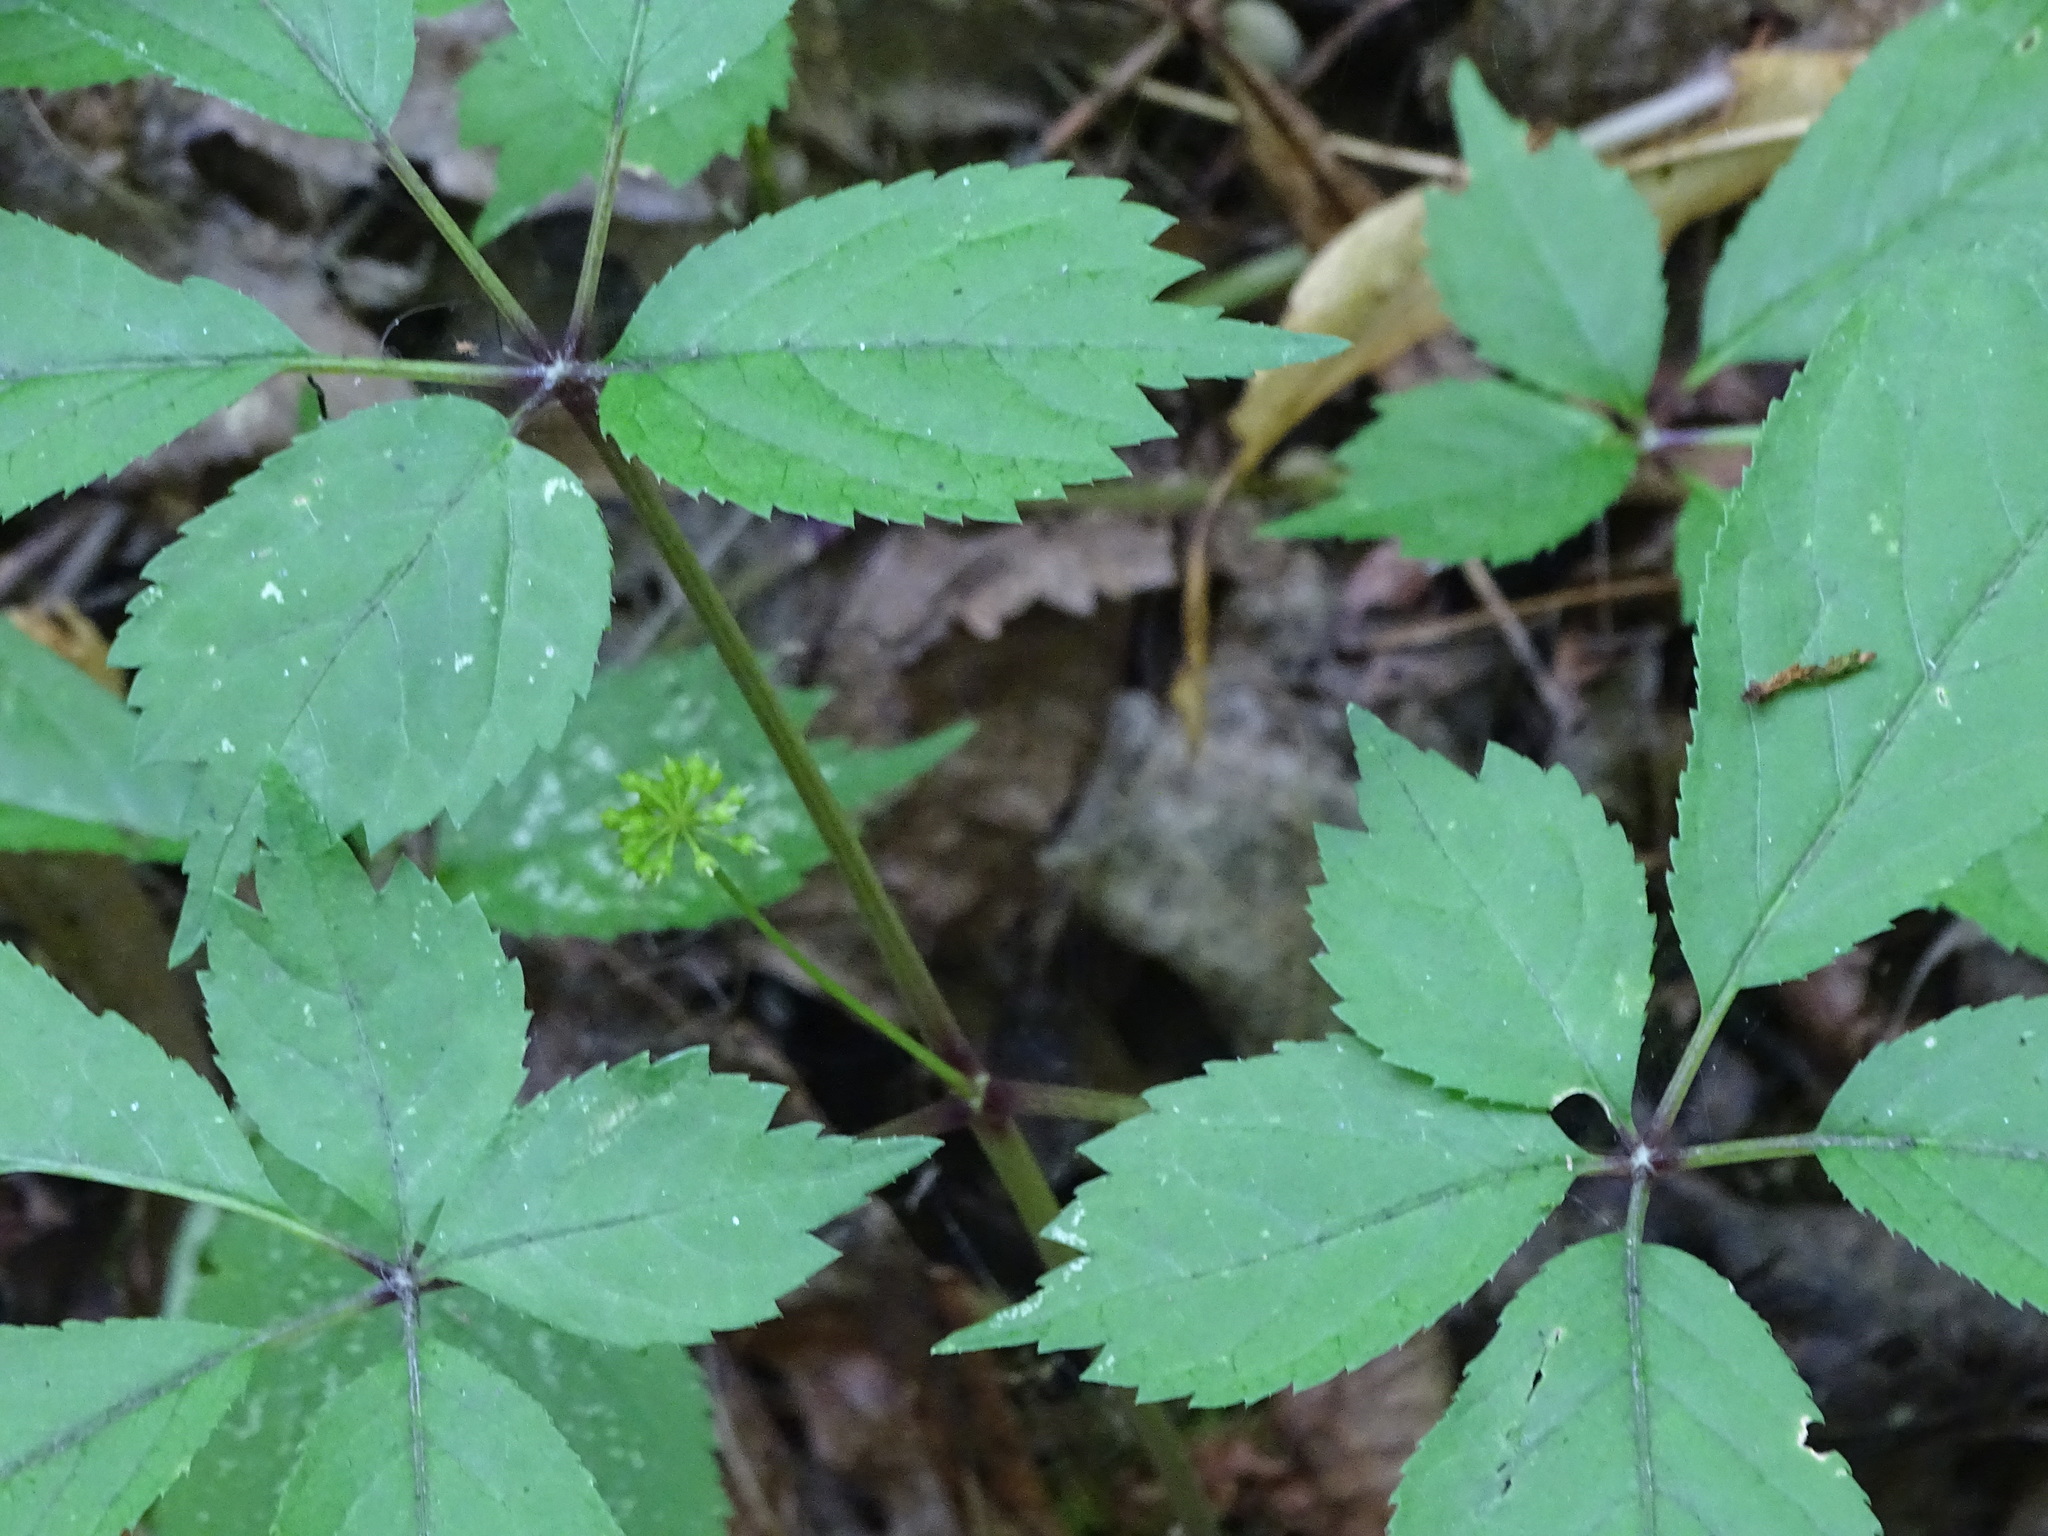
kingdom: Plantae
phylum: Tracheophyta
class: Magnoliopsida
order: Apiales
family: Araliaceae
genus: Panax
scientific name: Panax quinquefolius
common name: American ginseng
